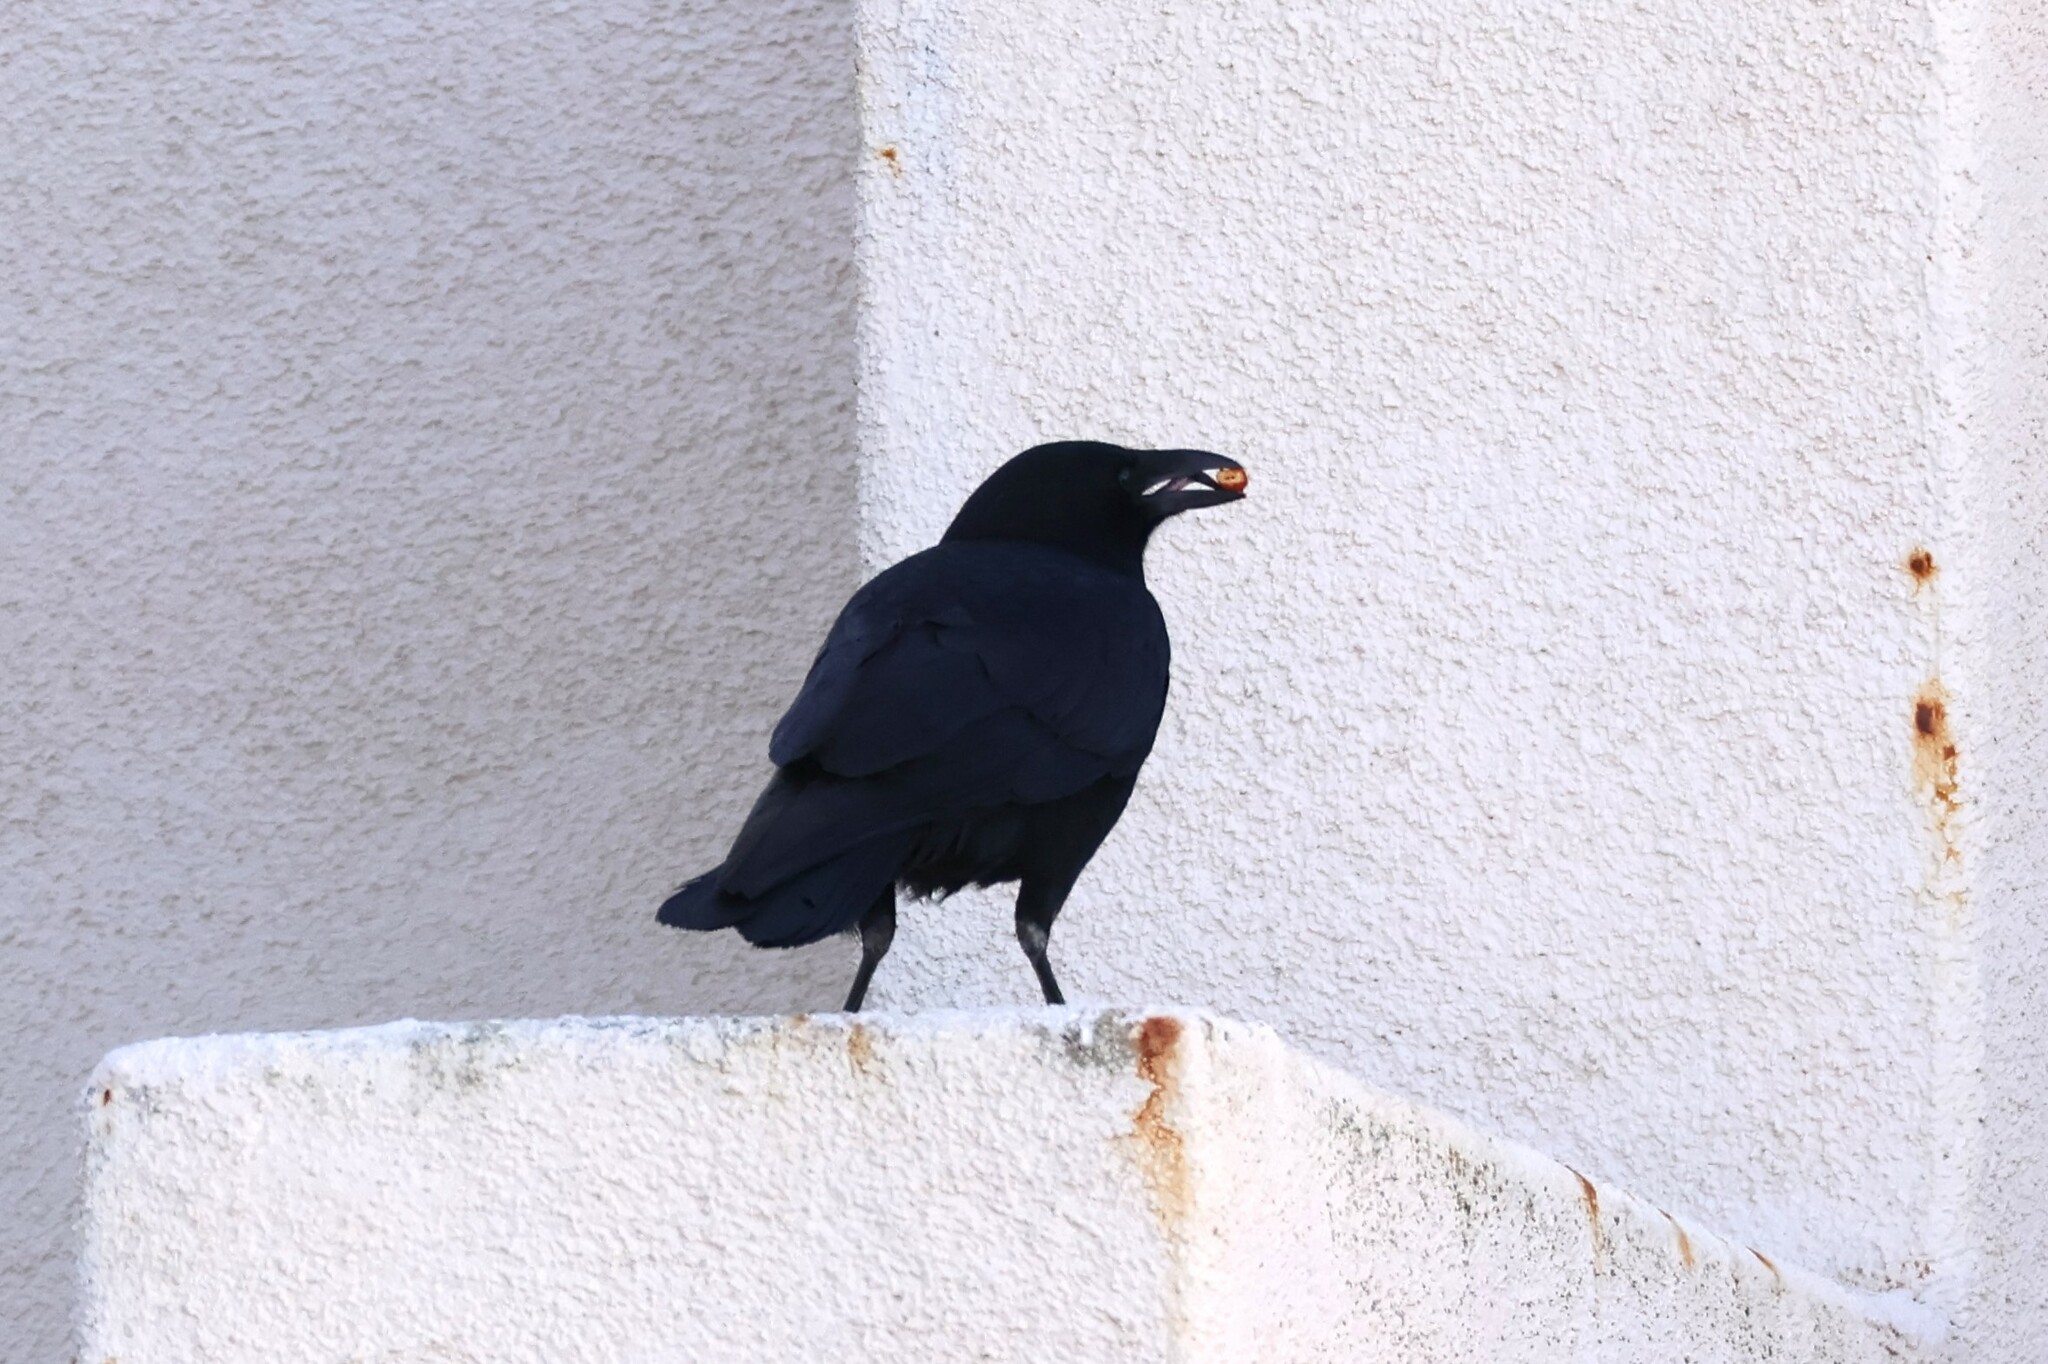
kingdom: Animalia
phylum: Chordata
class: Aves
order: Passeriformes
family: Corvidae
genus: Corvus
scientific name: Corvus brachyrhynchos
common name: American crow
